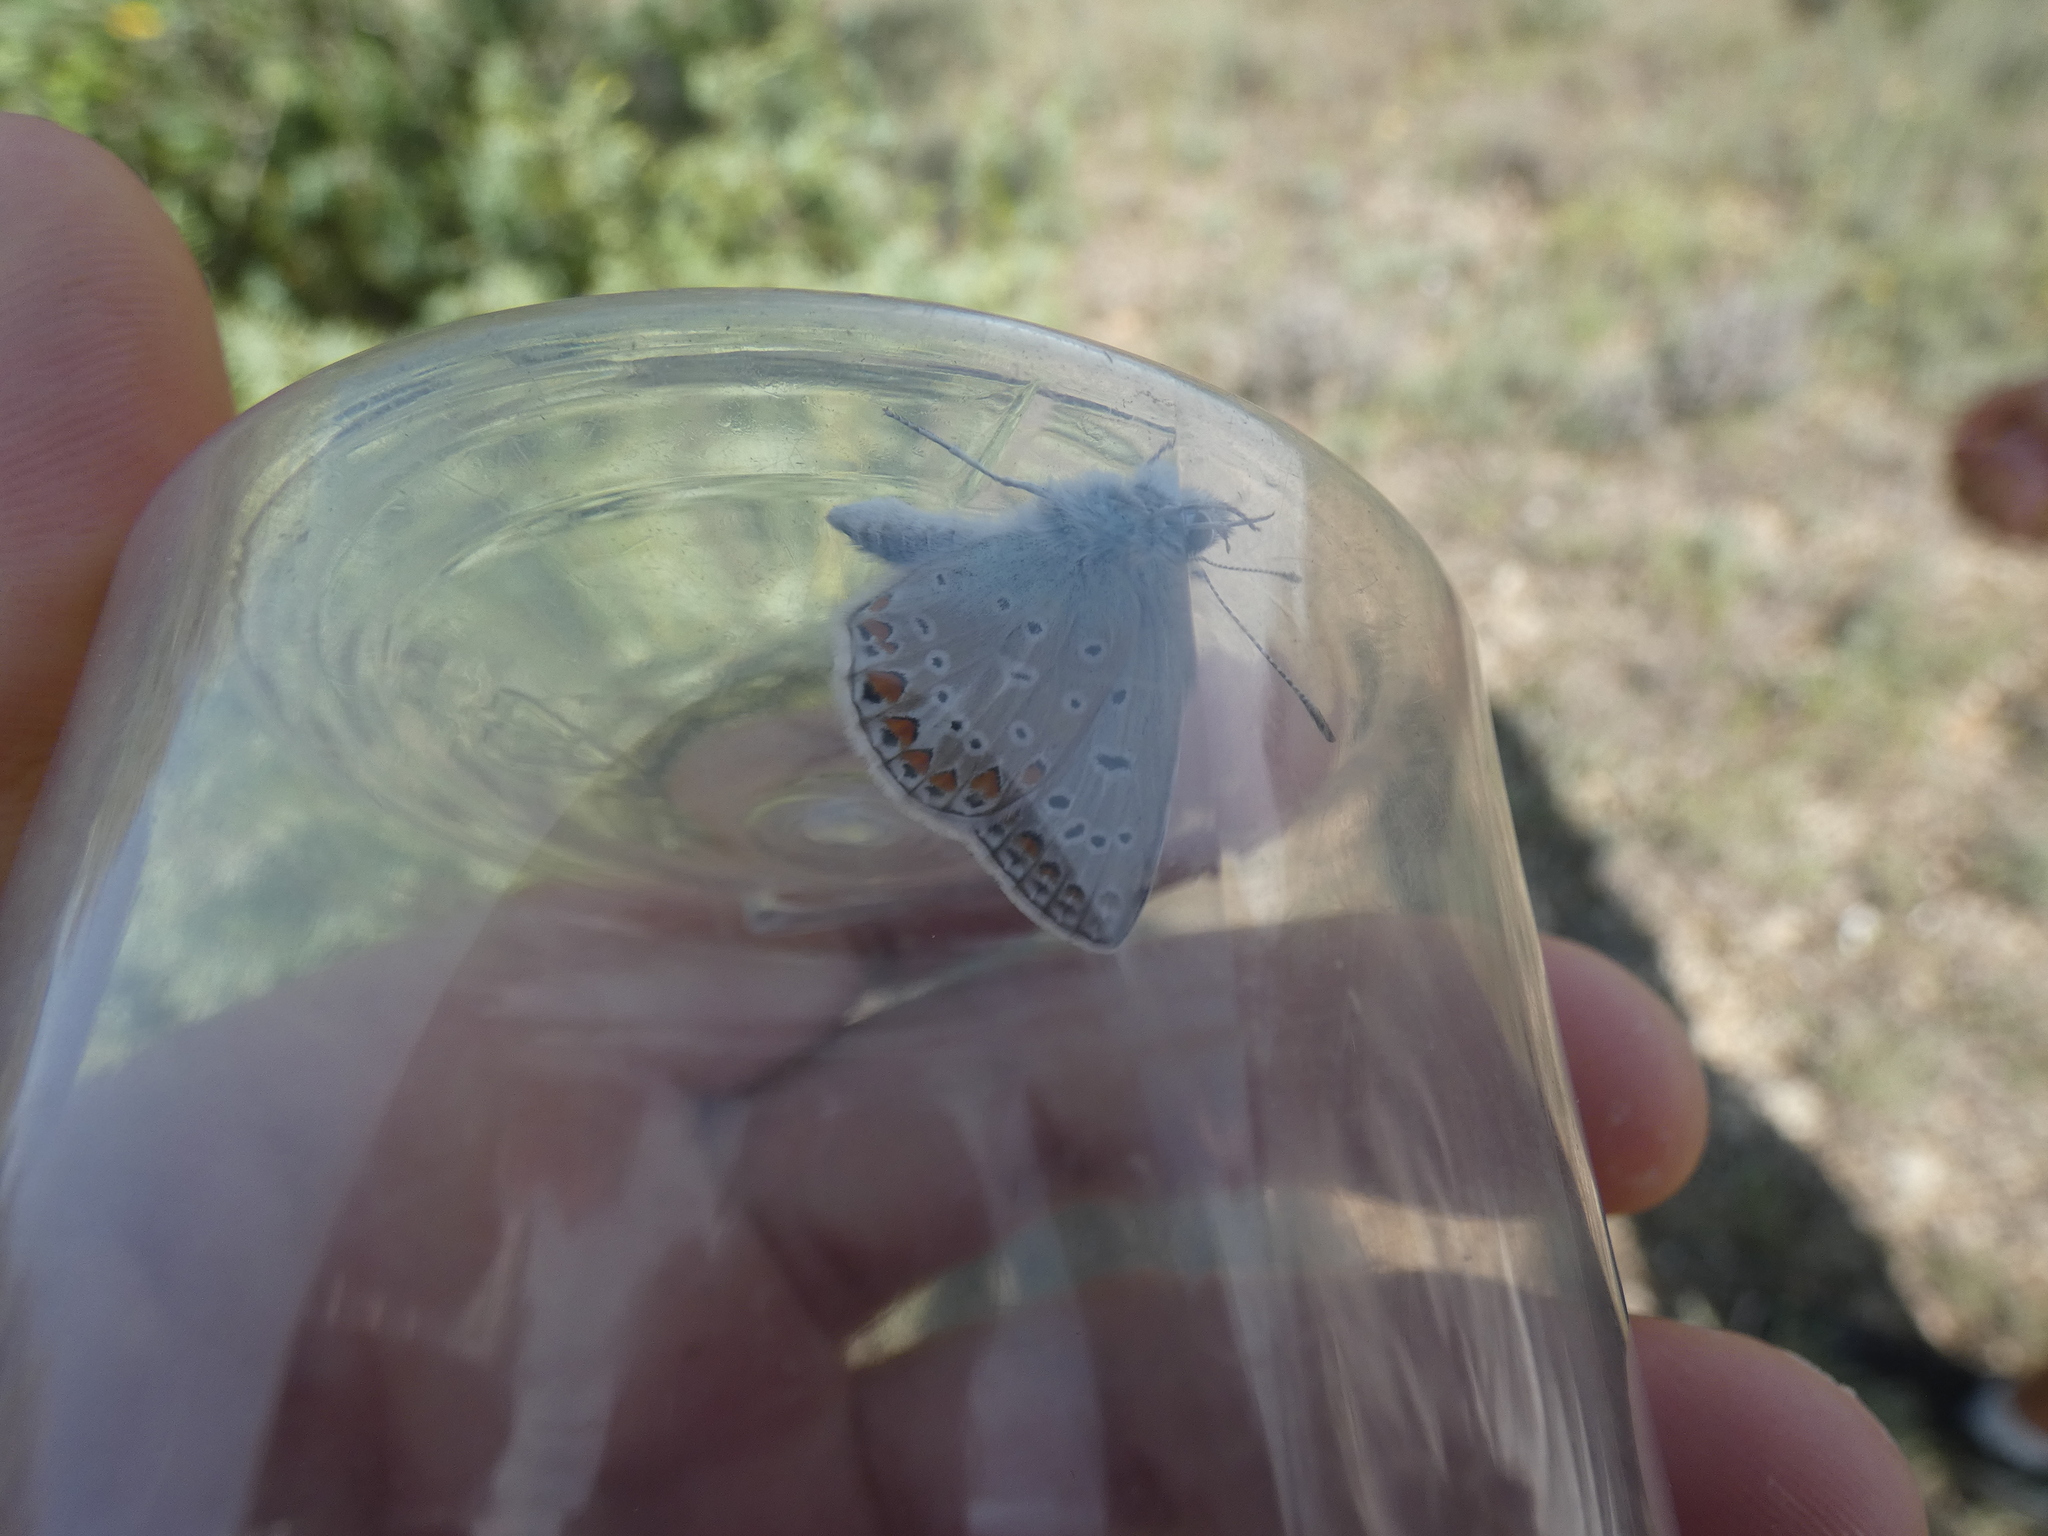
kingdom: Animalia
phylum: Arthropoda
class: Insecta
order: Lepidoptera
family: Lycaenidae
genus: Polyommatus
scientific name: Polyommatus icarus
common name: Common blue
